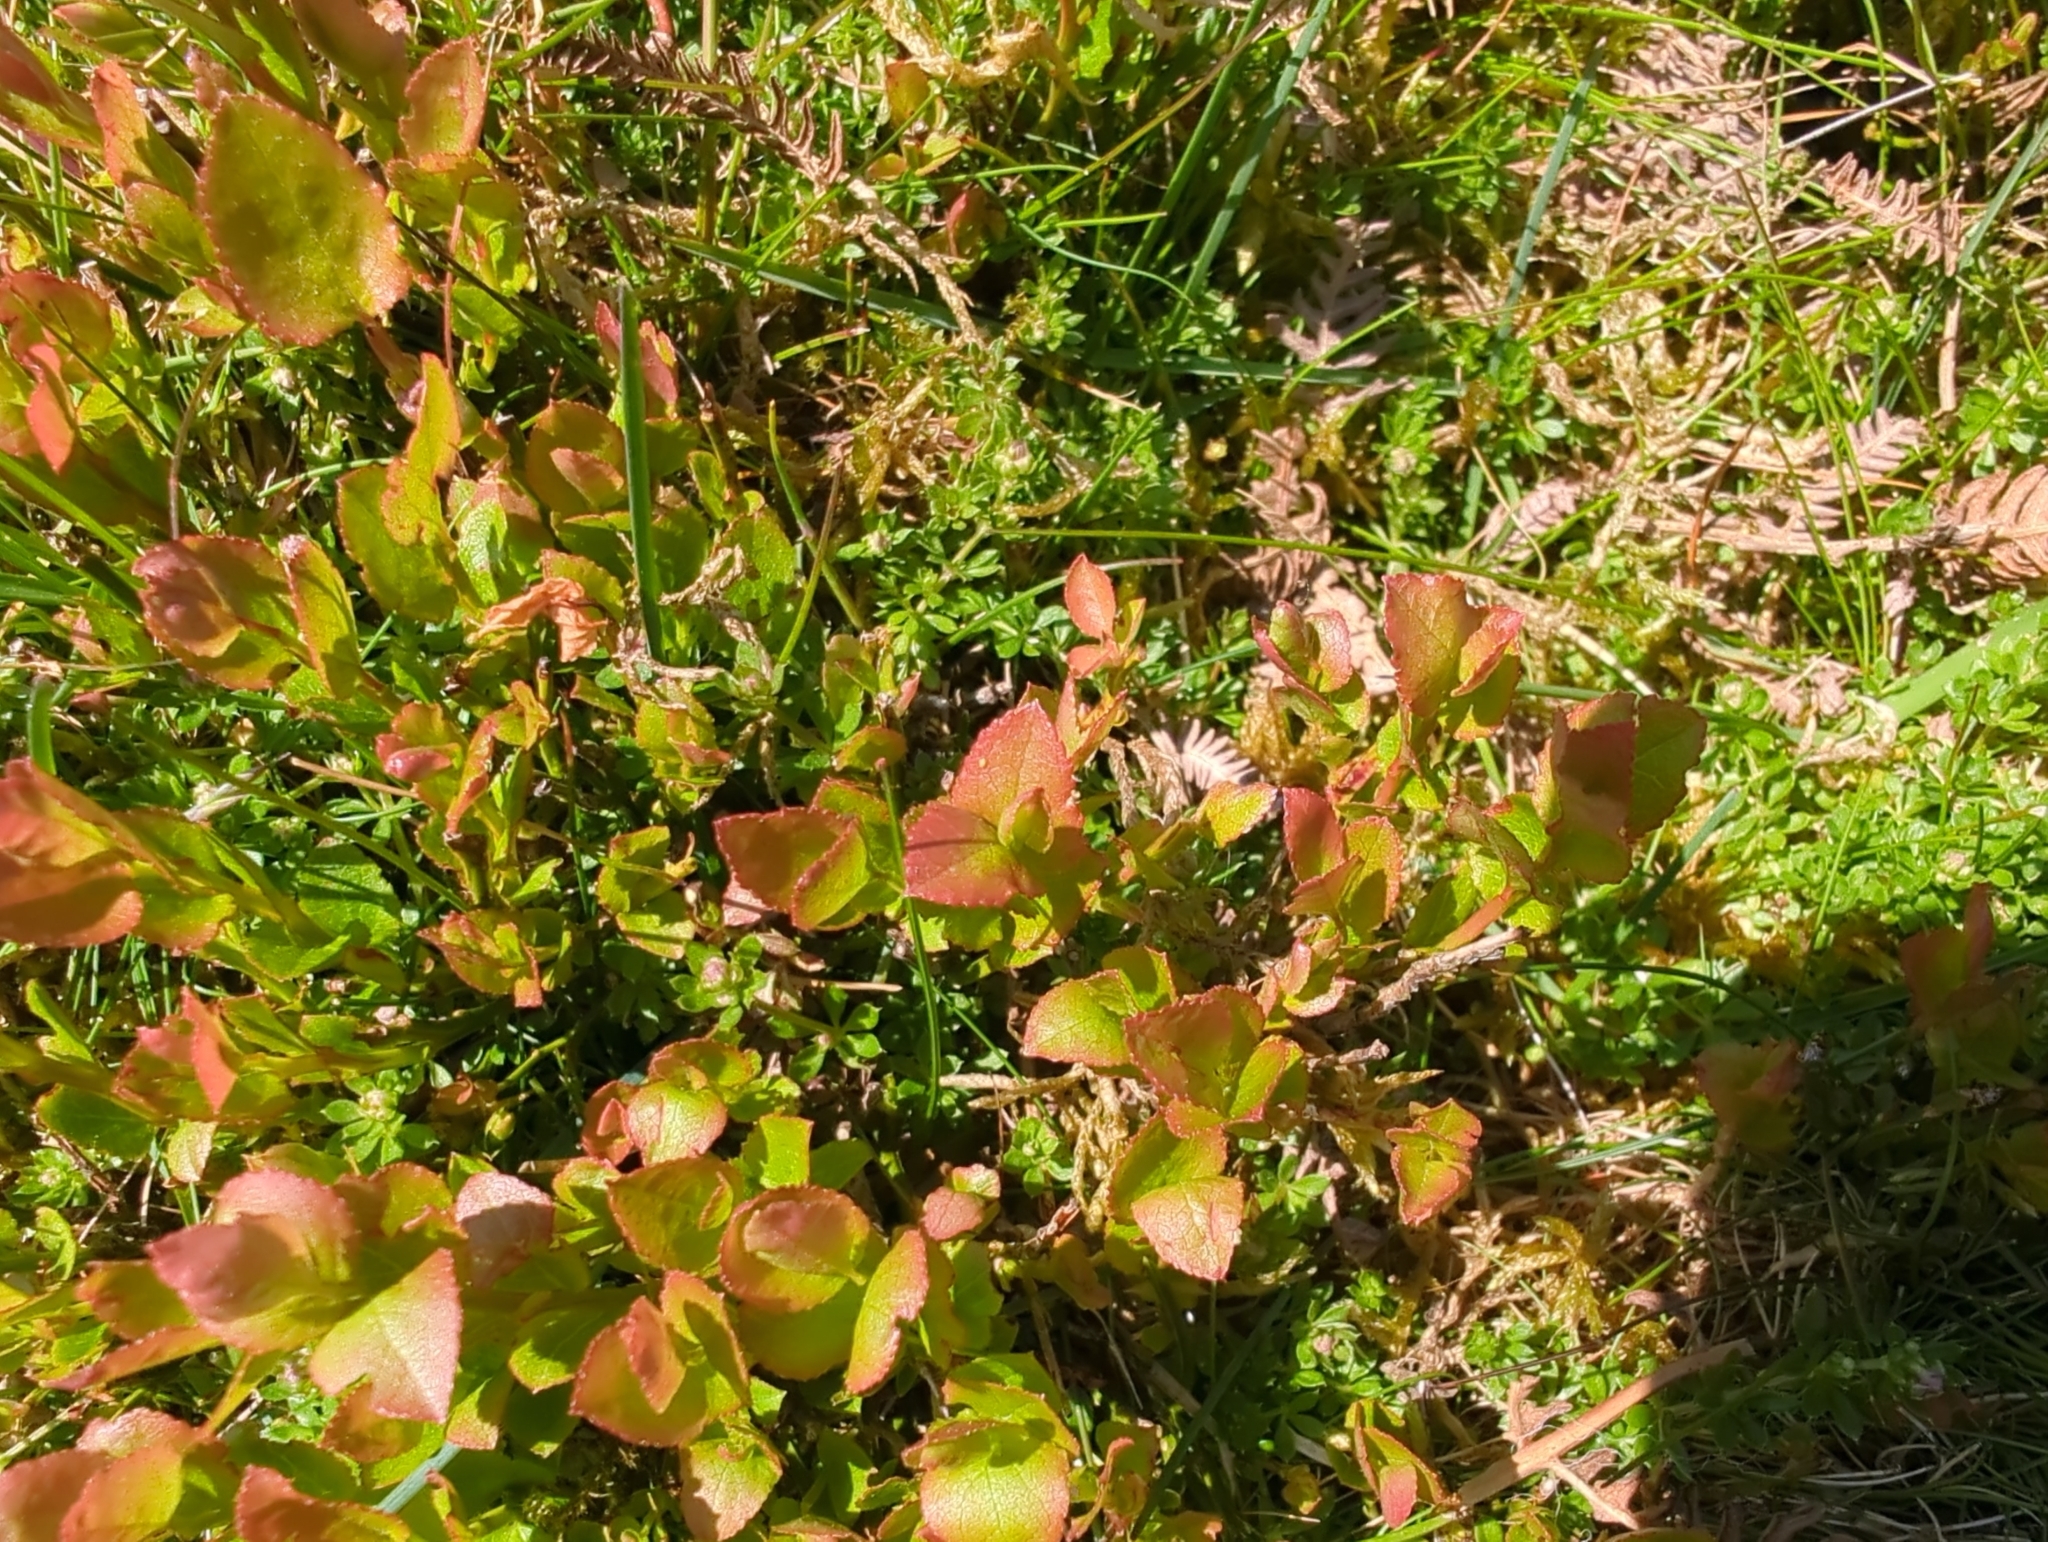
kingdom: Plantae
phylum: Tracheophyta
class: Magnoliopsida
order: Ericales
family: Ericaceae
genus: Vaccinium
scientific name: Vaccinium myrtillus
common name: Bilberry
